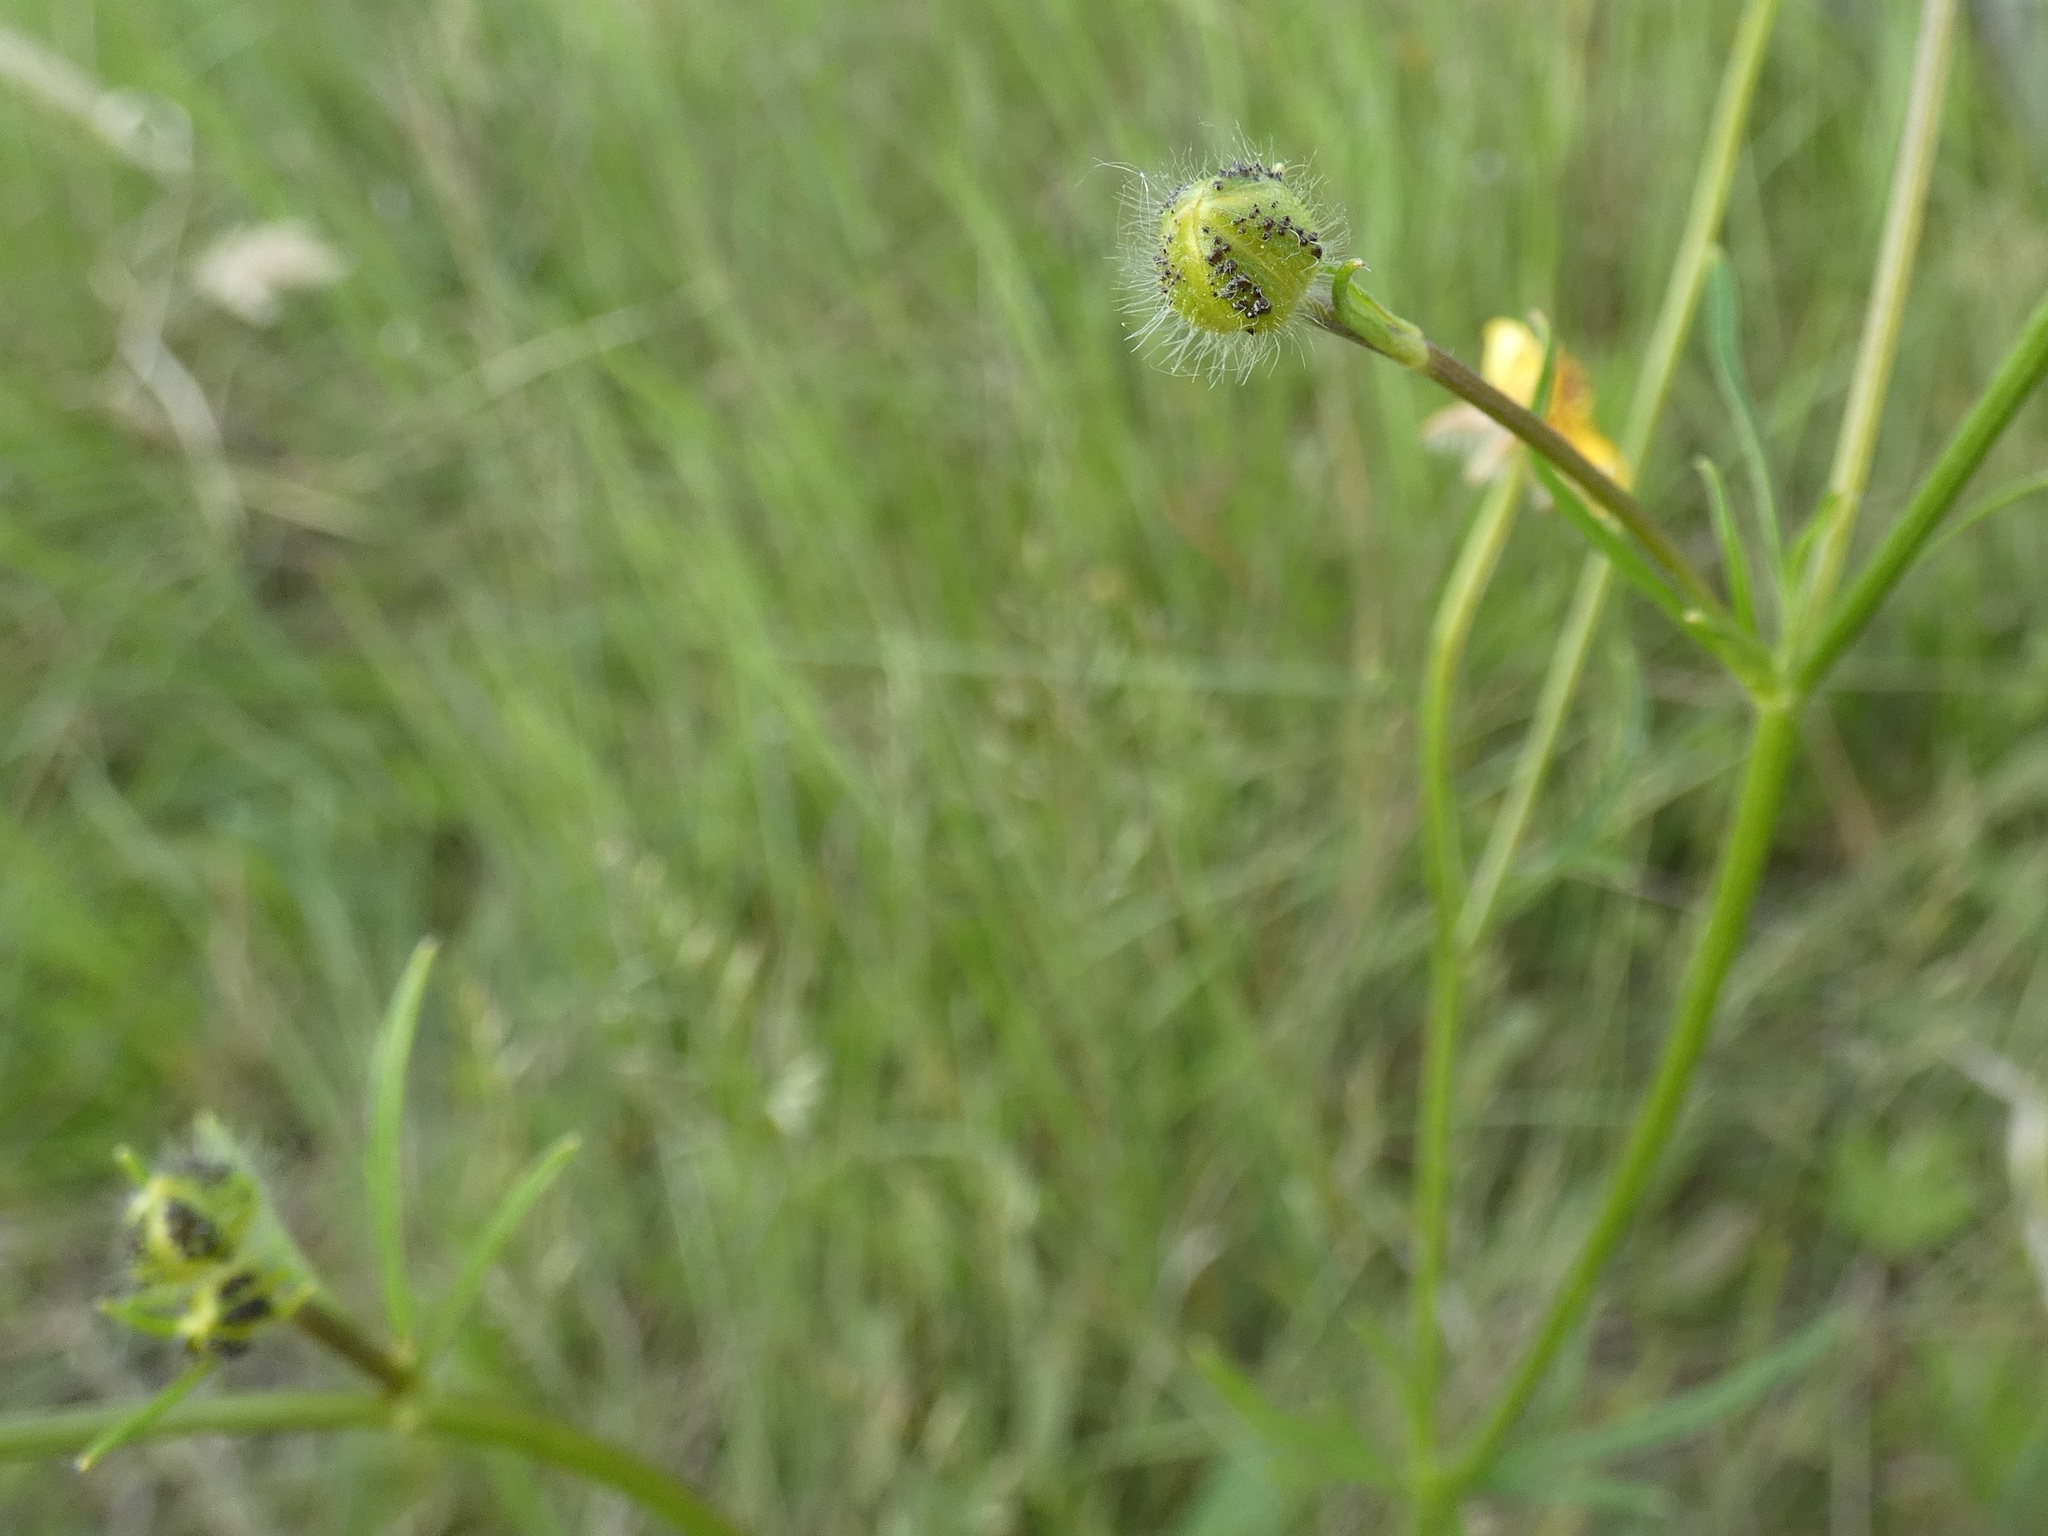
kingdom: Plantae
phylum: Tracheophyta
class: Magnoliopsida
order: Ranunculales
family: Ranunculaceae
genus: Ranunculus
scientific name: Ranunculus polyanthemos
